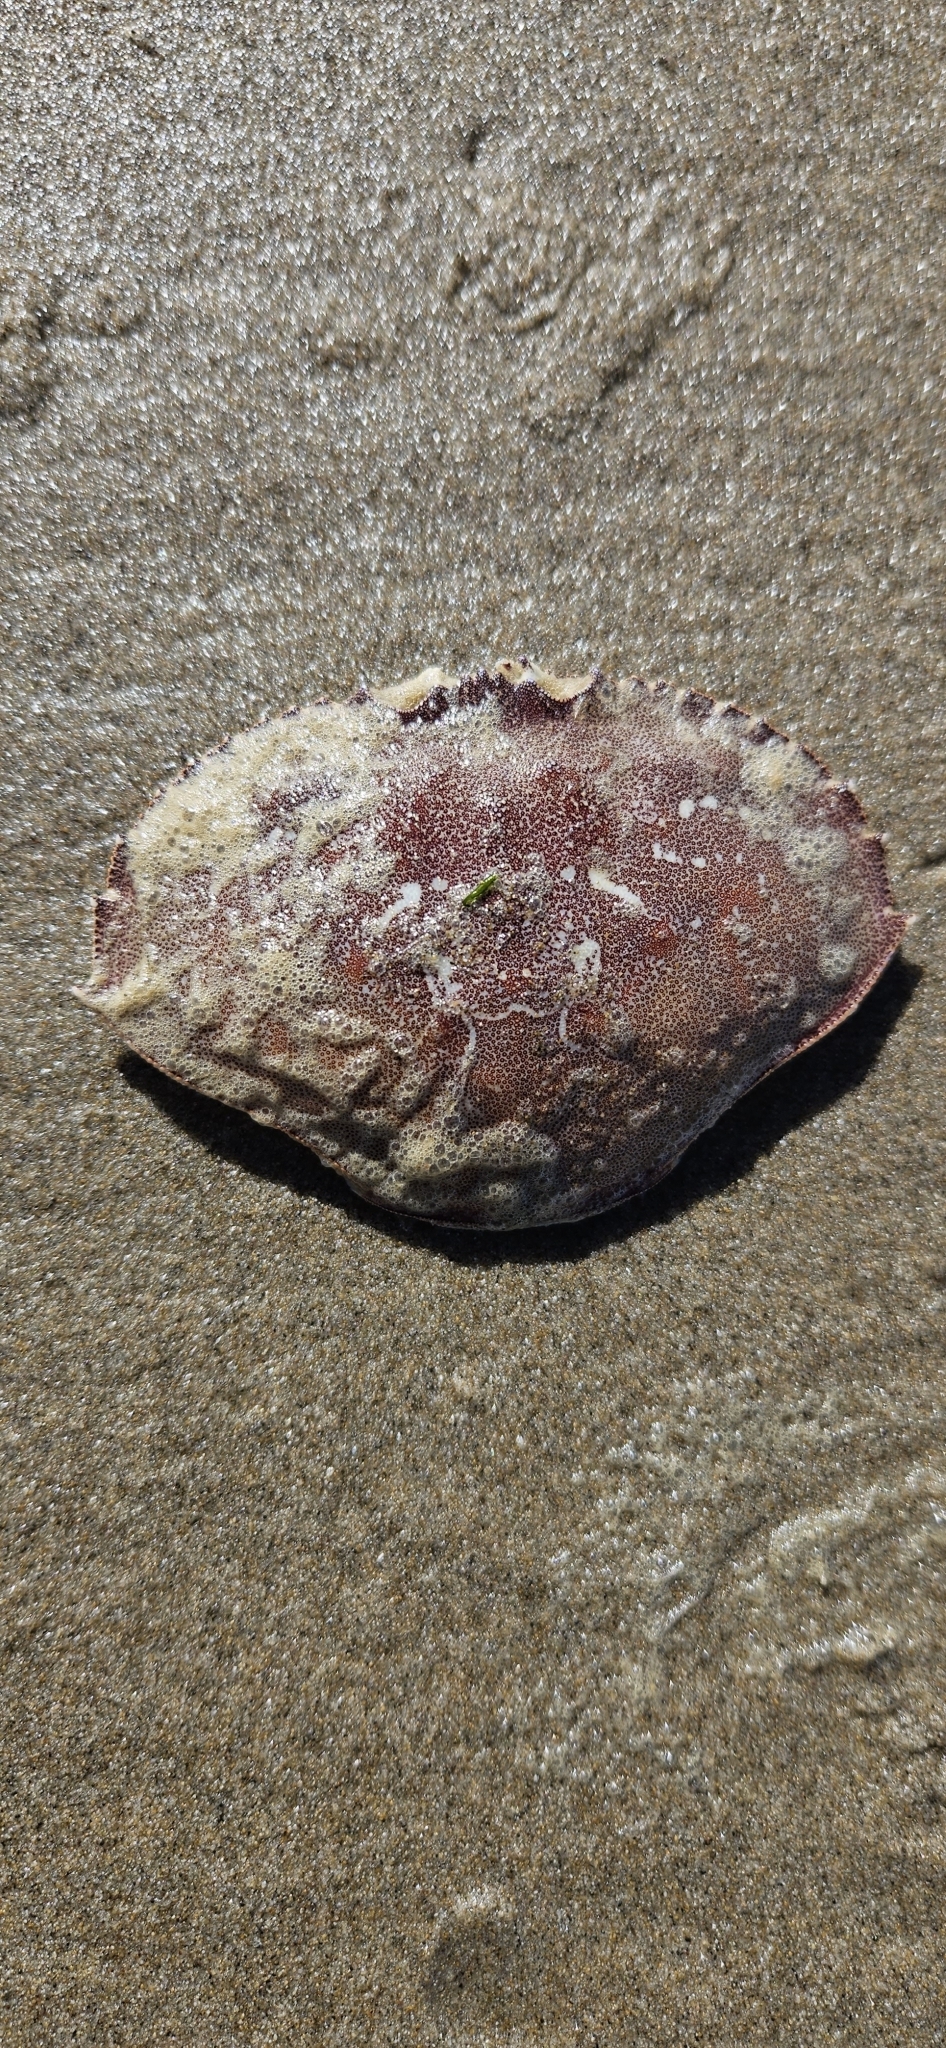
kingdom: Animalia
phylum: Arthropoda
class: Malacostraca
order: Decapoda
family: Cancridae
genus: Metacarcinus
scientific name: Metacarcinus magister
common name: Californian crab
